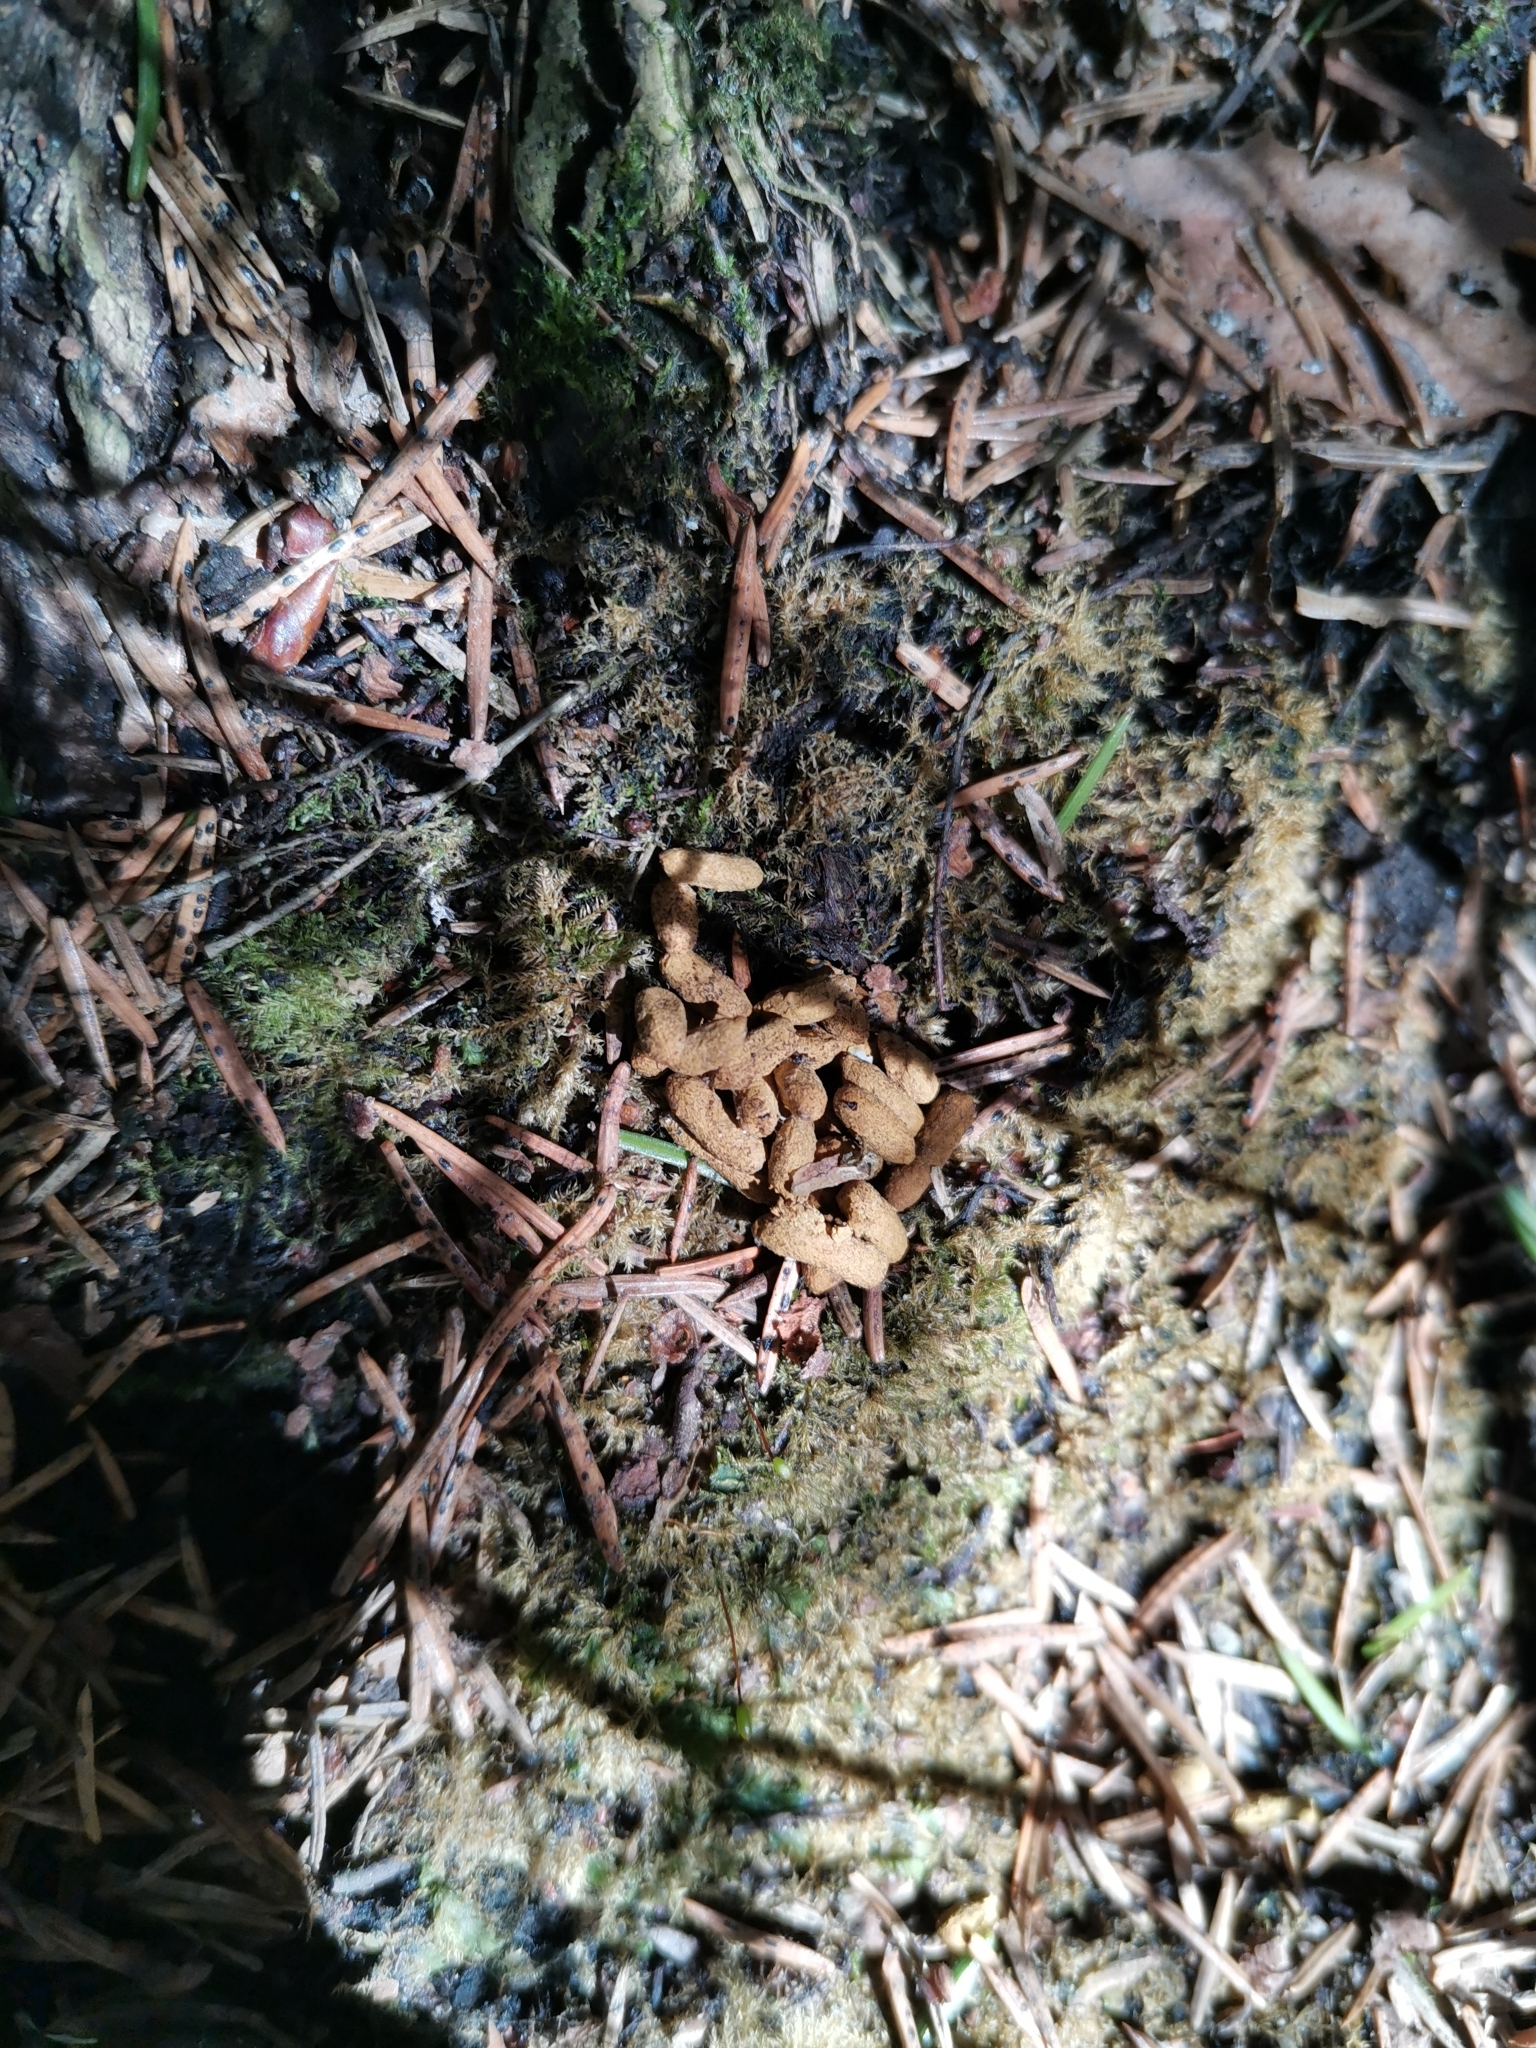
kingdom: Animalia
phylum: Chordata
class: Mammalia
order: Rodentia
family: Sciuridae
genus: Pteromys
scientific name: Pteromys volans
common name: Siberian flying squirrel
